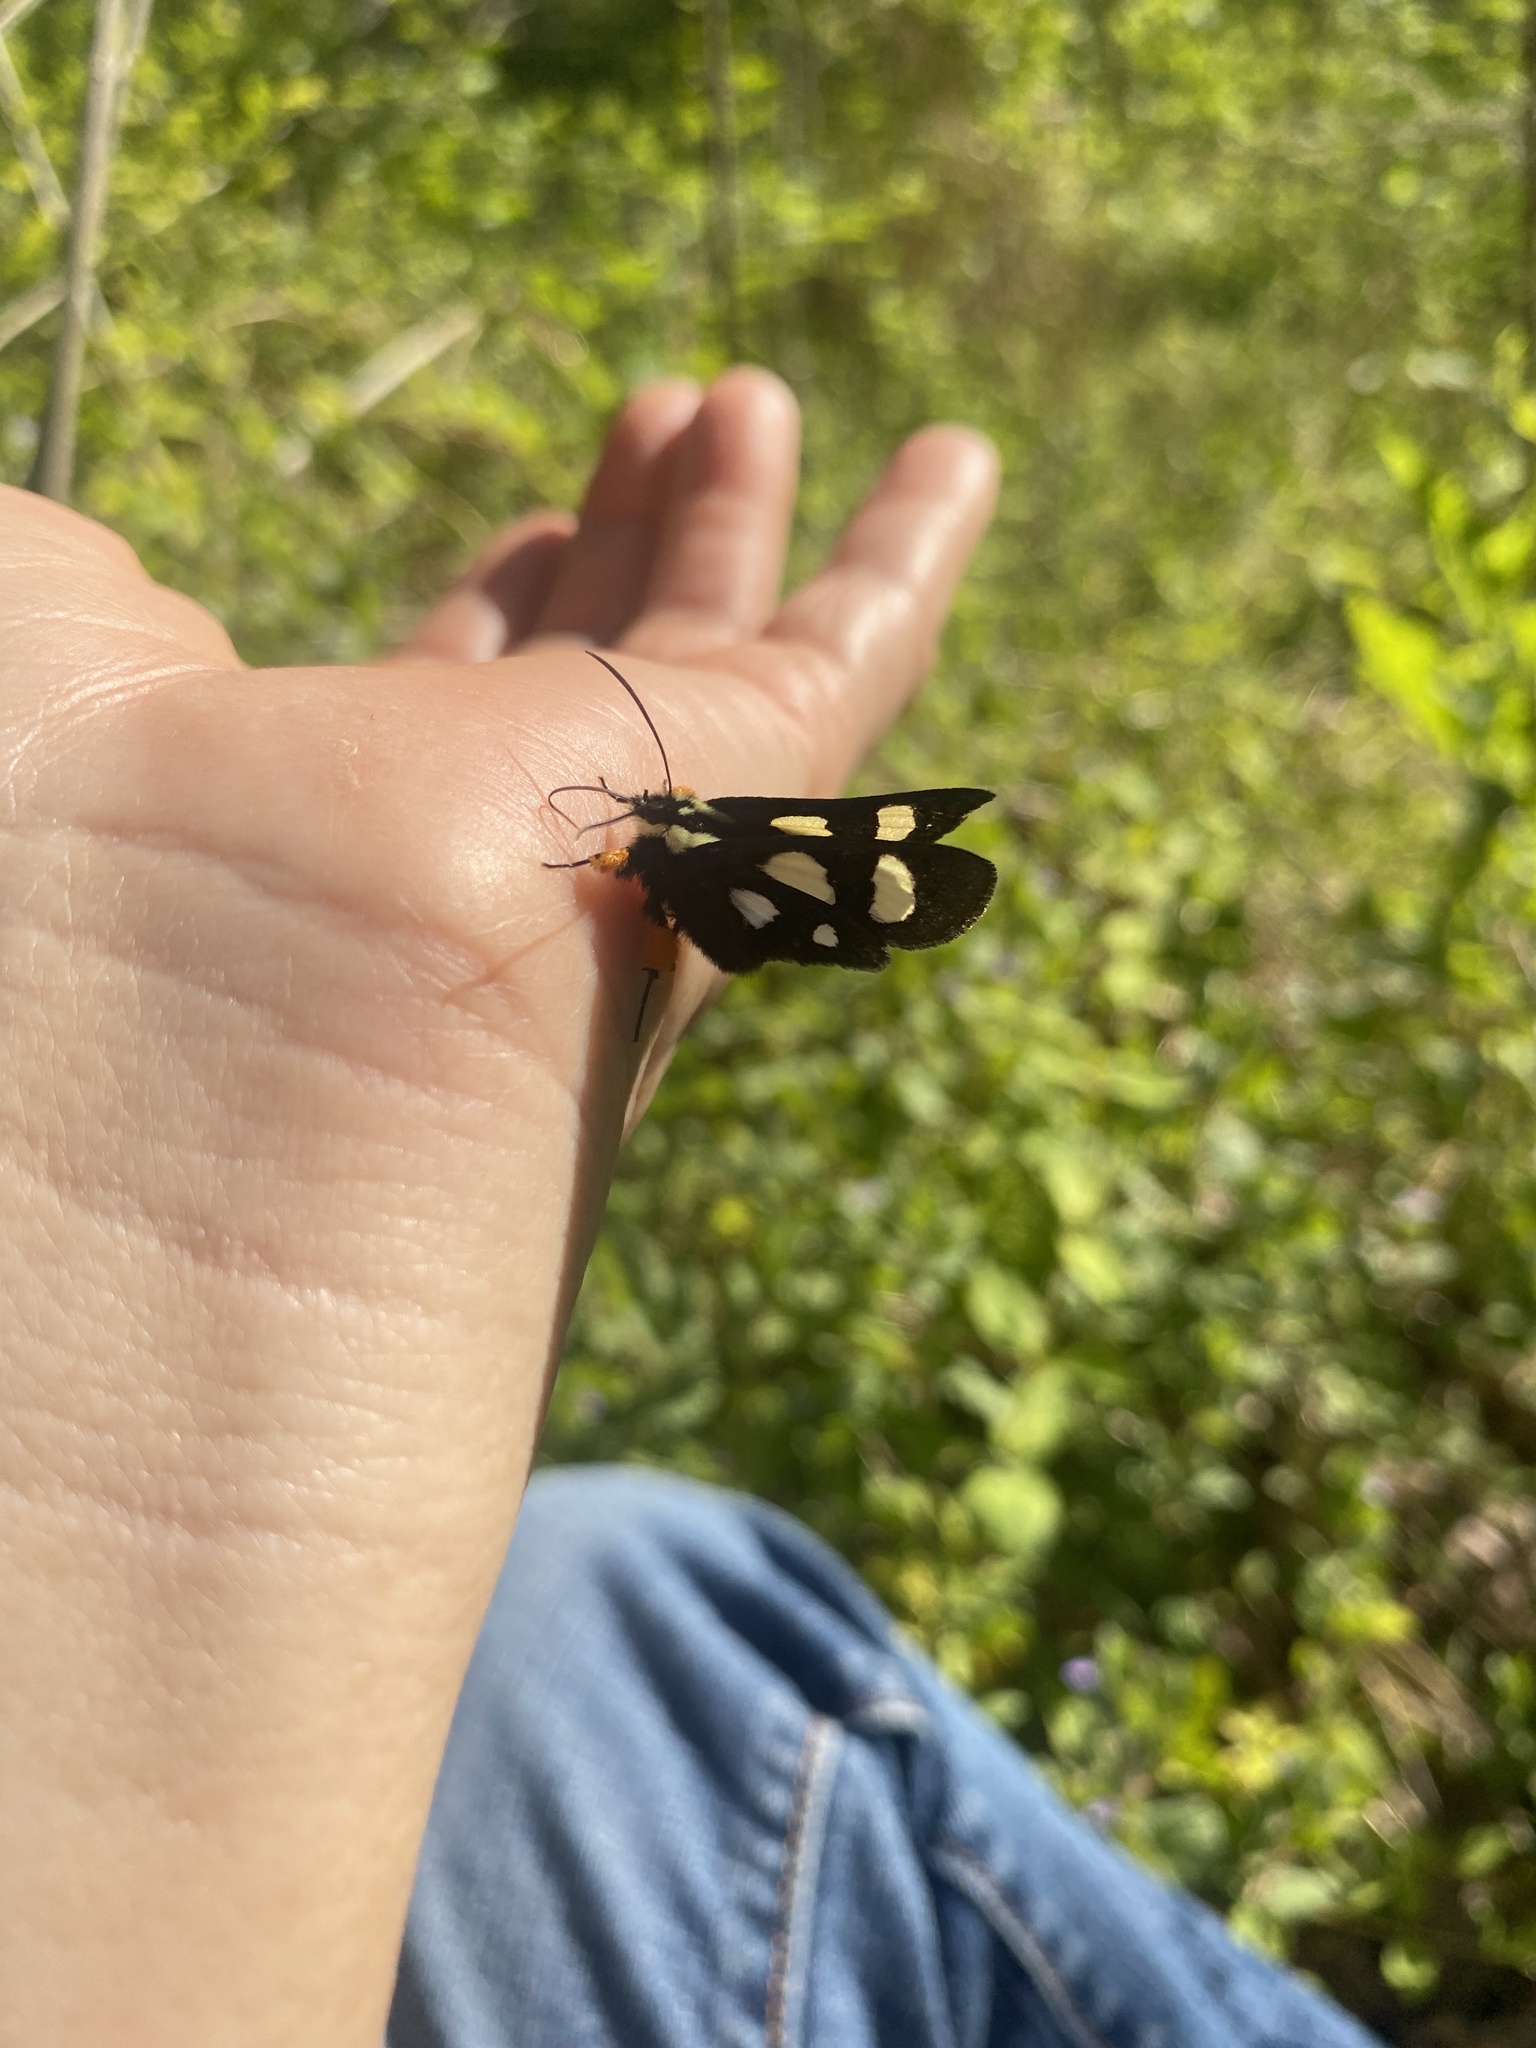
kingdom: Animalia
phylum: Arthropoda
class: Insecta
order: Lepidoptera
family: Noctuidae
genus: Alypia
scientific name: Alypia octomaculata
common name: Eight-spotted forester
